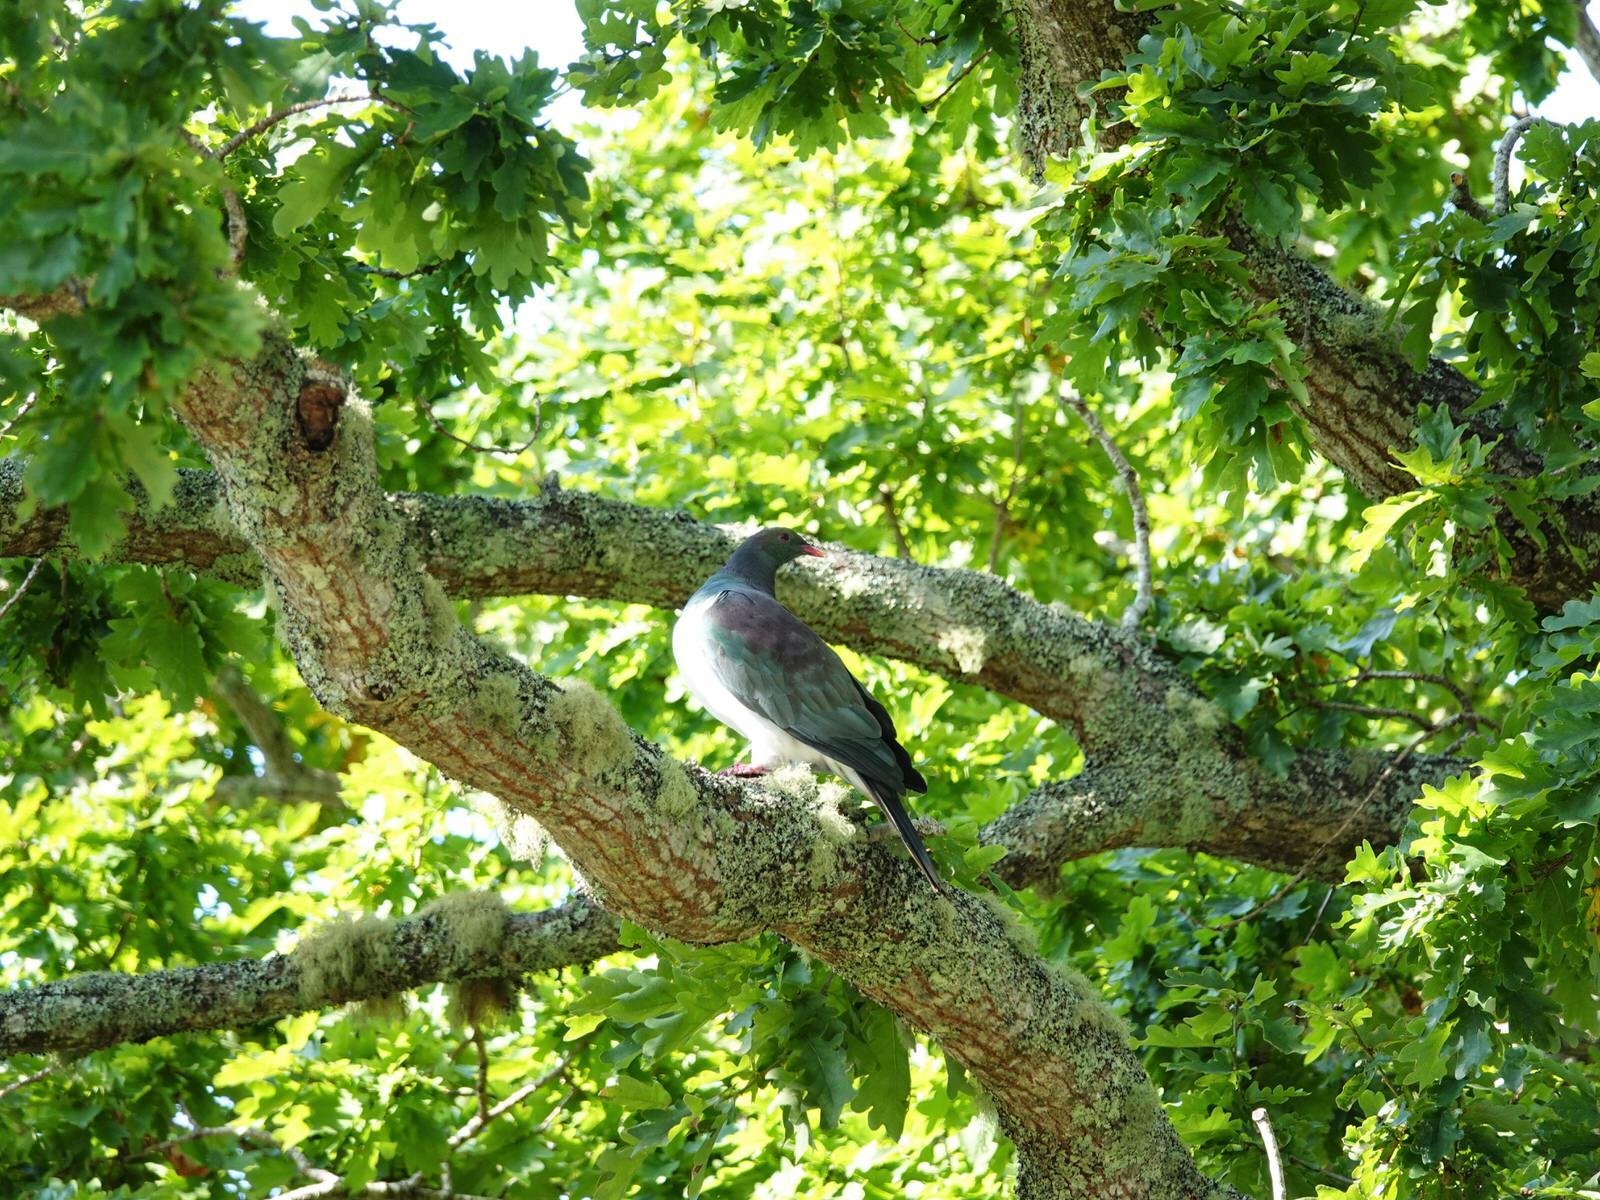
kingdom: Animalia
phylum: Chordata
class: Aves
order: Columbiformes
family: Columbidae
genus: Hemiphaga
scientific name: Hemiphaga novaeseelandiae
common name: New zealand pigeon
